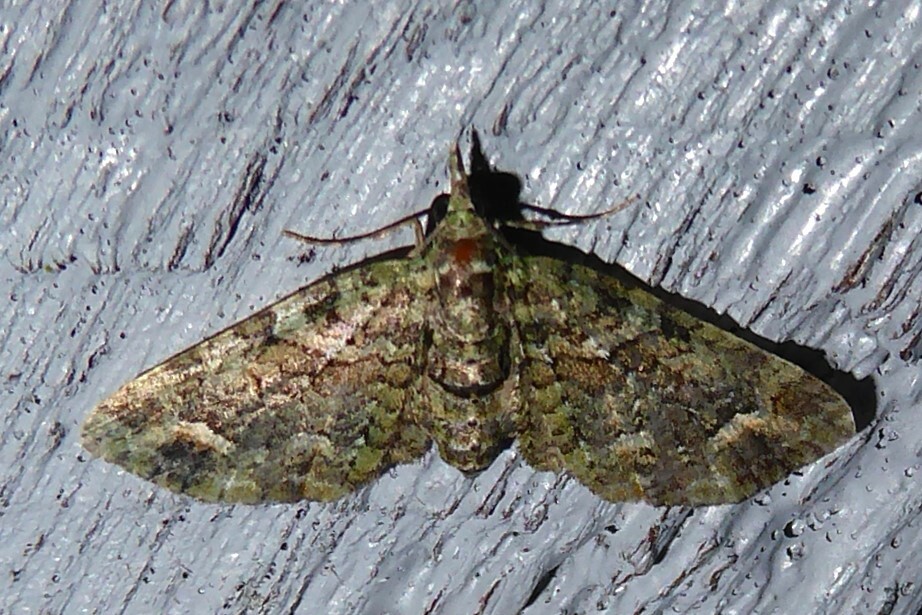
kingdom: Animalia
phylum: Arthropoda
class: Insecta
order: Lepidoptera
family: Geometridae
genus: Idaea
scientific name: Idaea mutanda
